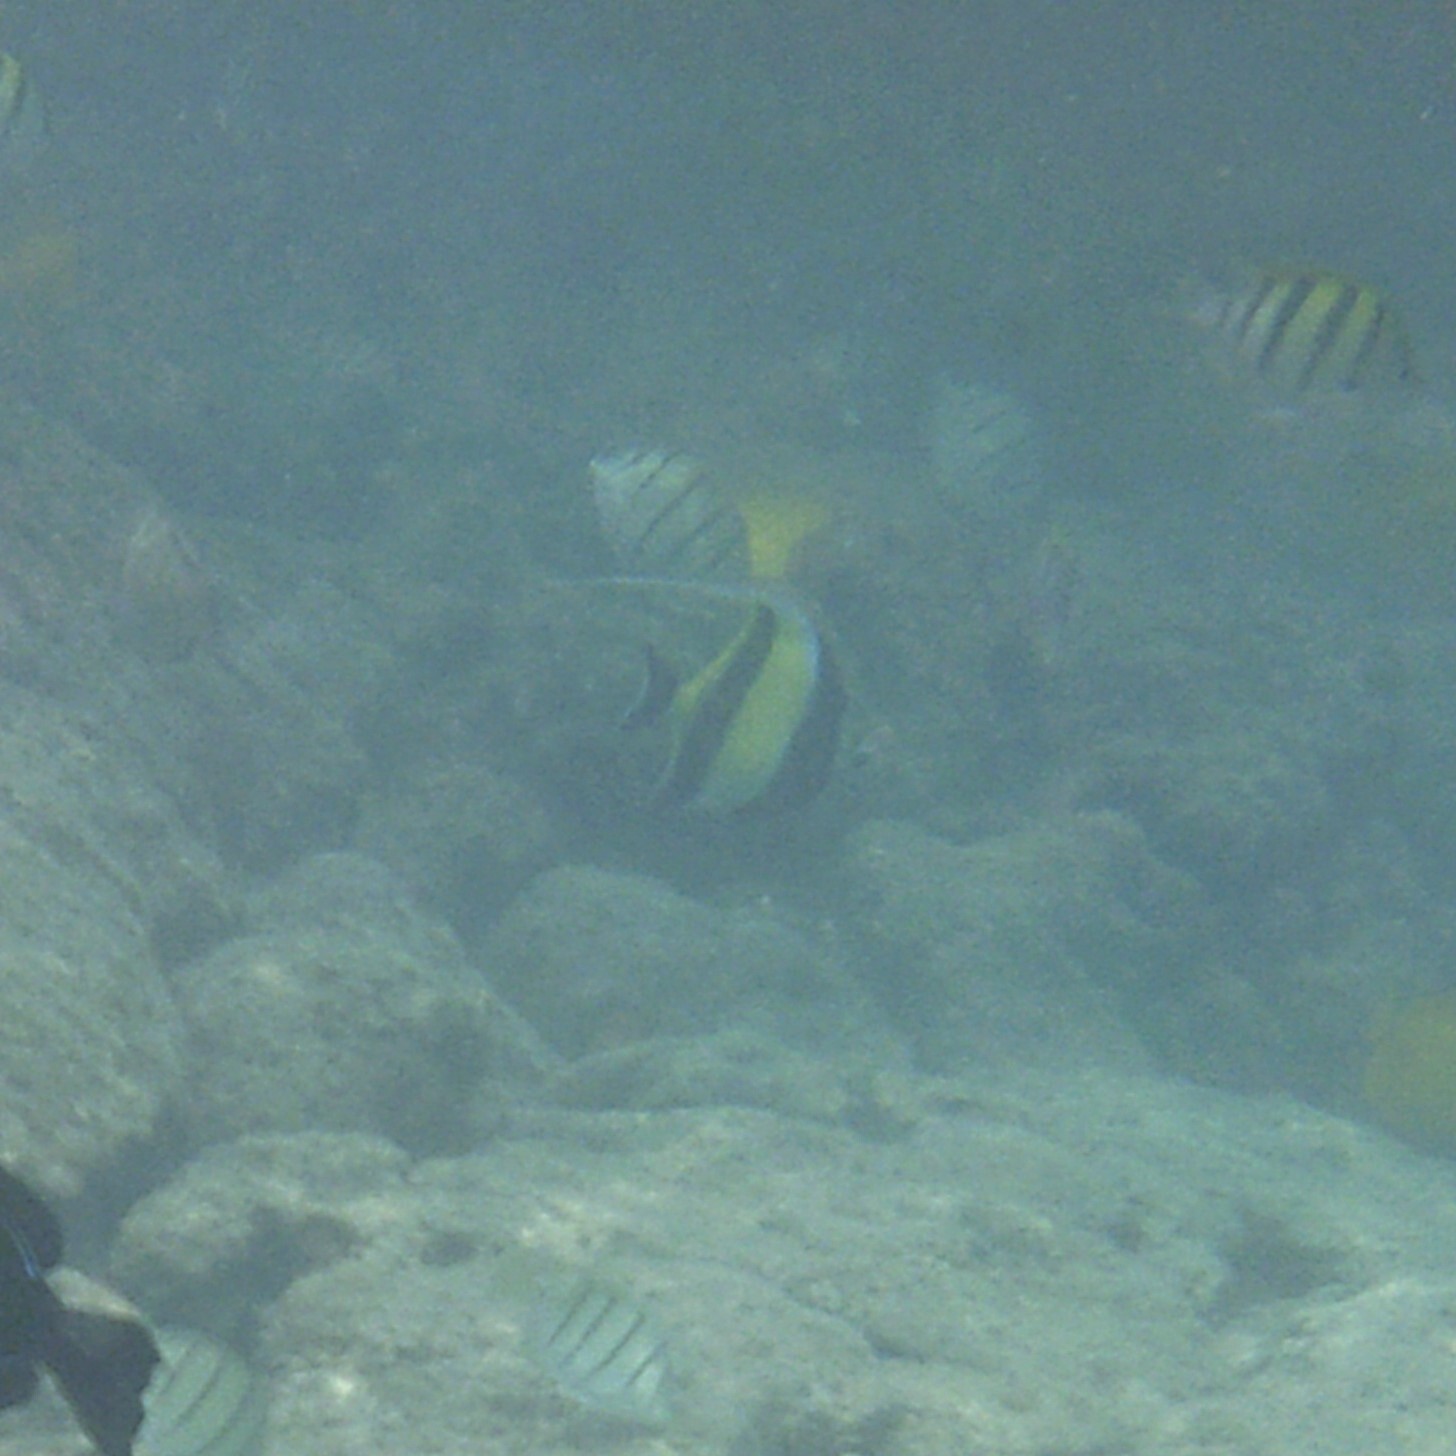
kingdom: Animalia
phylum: Chordata
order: Perciformes
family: Zanclidae
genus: Zanclus
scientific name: Zanclus cornutus
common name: Moorish idol
